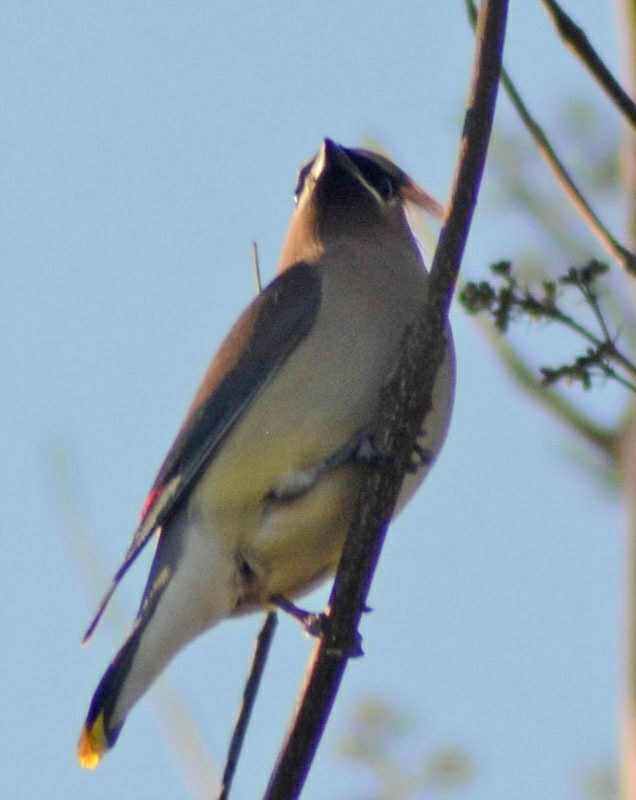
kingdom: Animalia
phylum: Chordata
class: Aves
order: Passeriformes
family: Bombycillidae
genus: Bombycilla
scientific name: Bombycilla cedrorum
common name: Cedar waxwing
